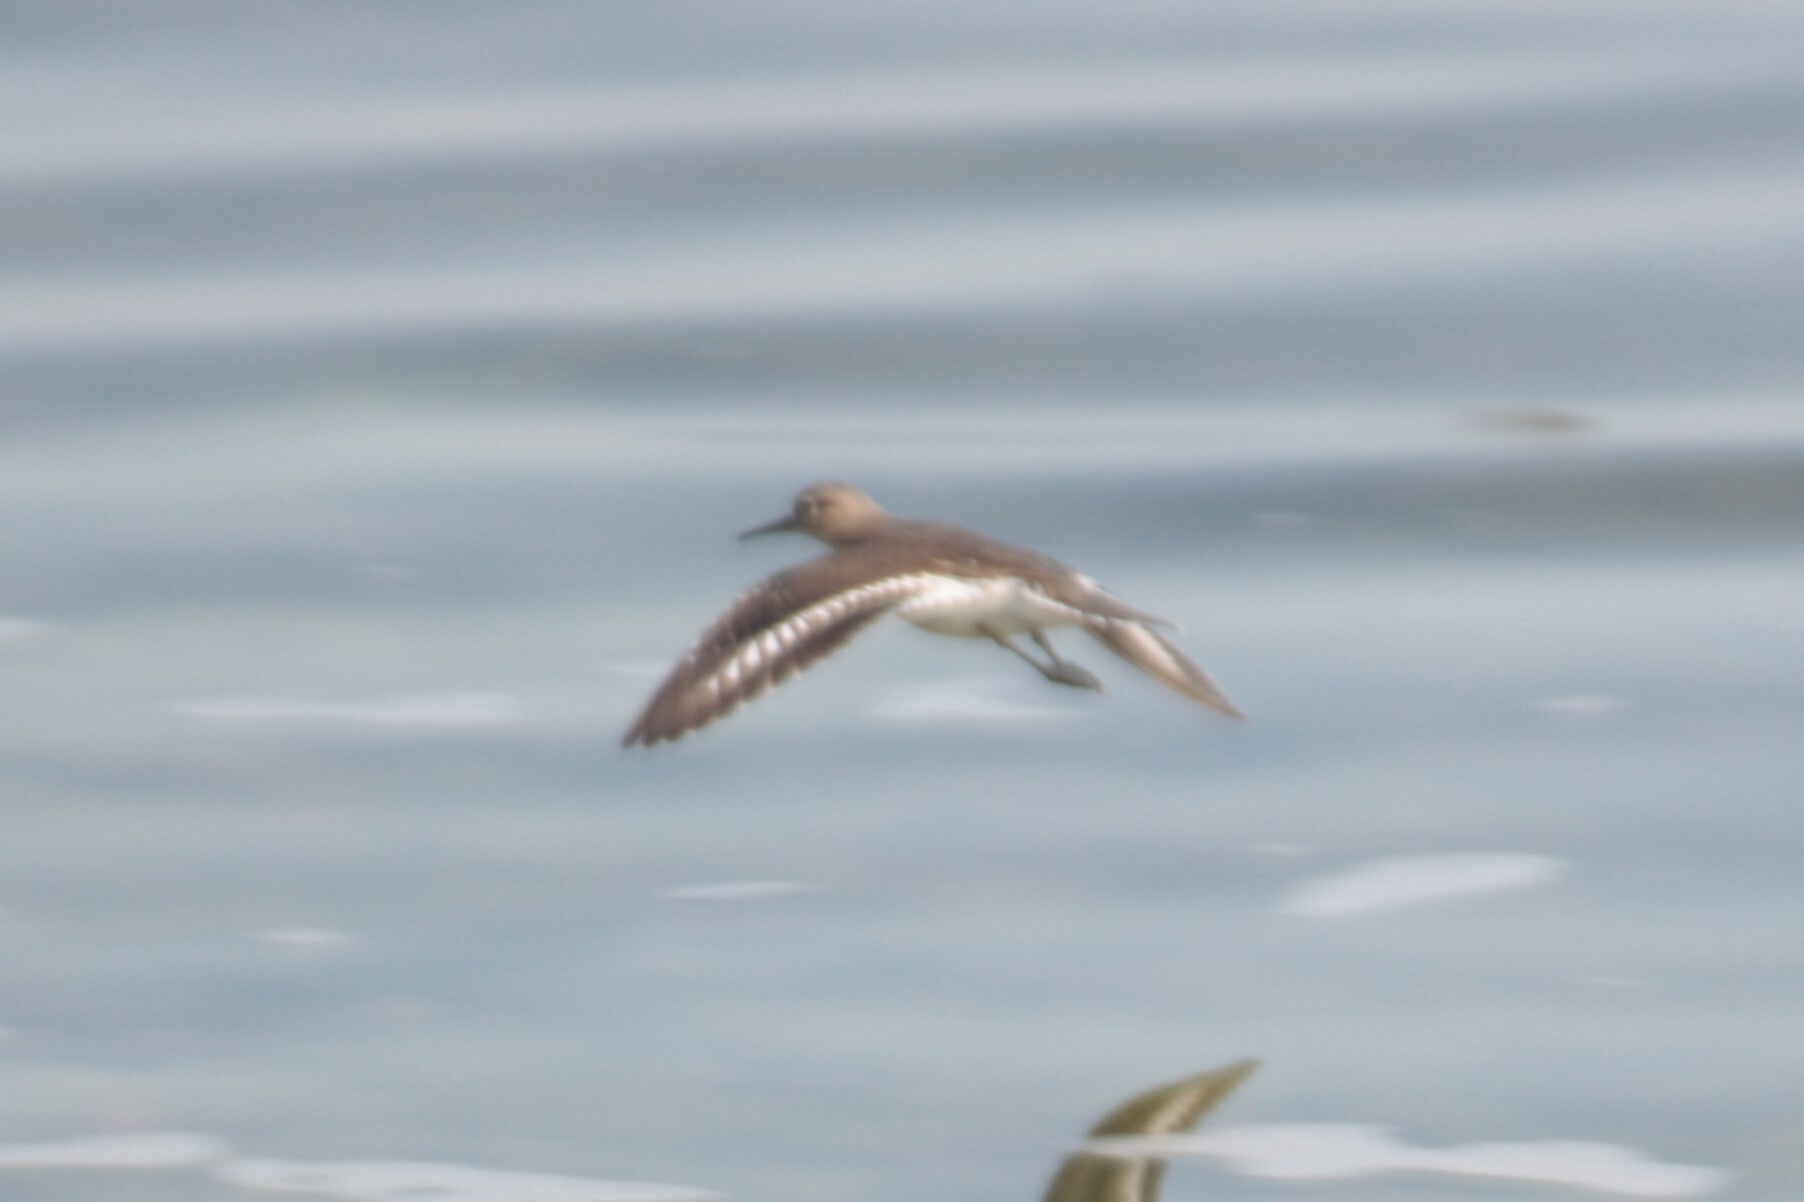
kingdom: Animalia
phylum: Chordata
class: Aves
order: Charadriiformes
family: Scolopacidae
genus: Actitis
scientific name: Actitis hypoleucos
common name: Common sandpiper
